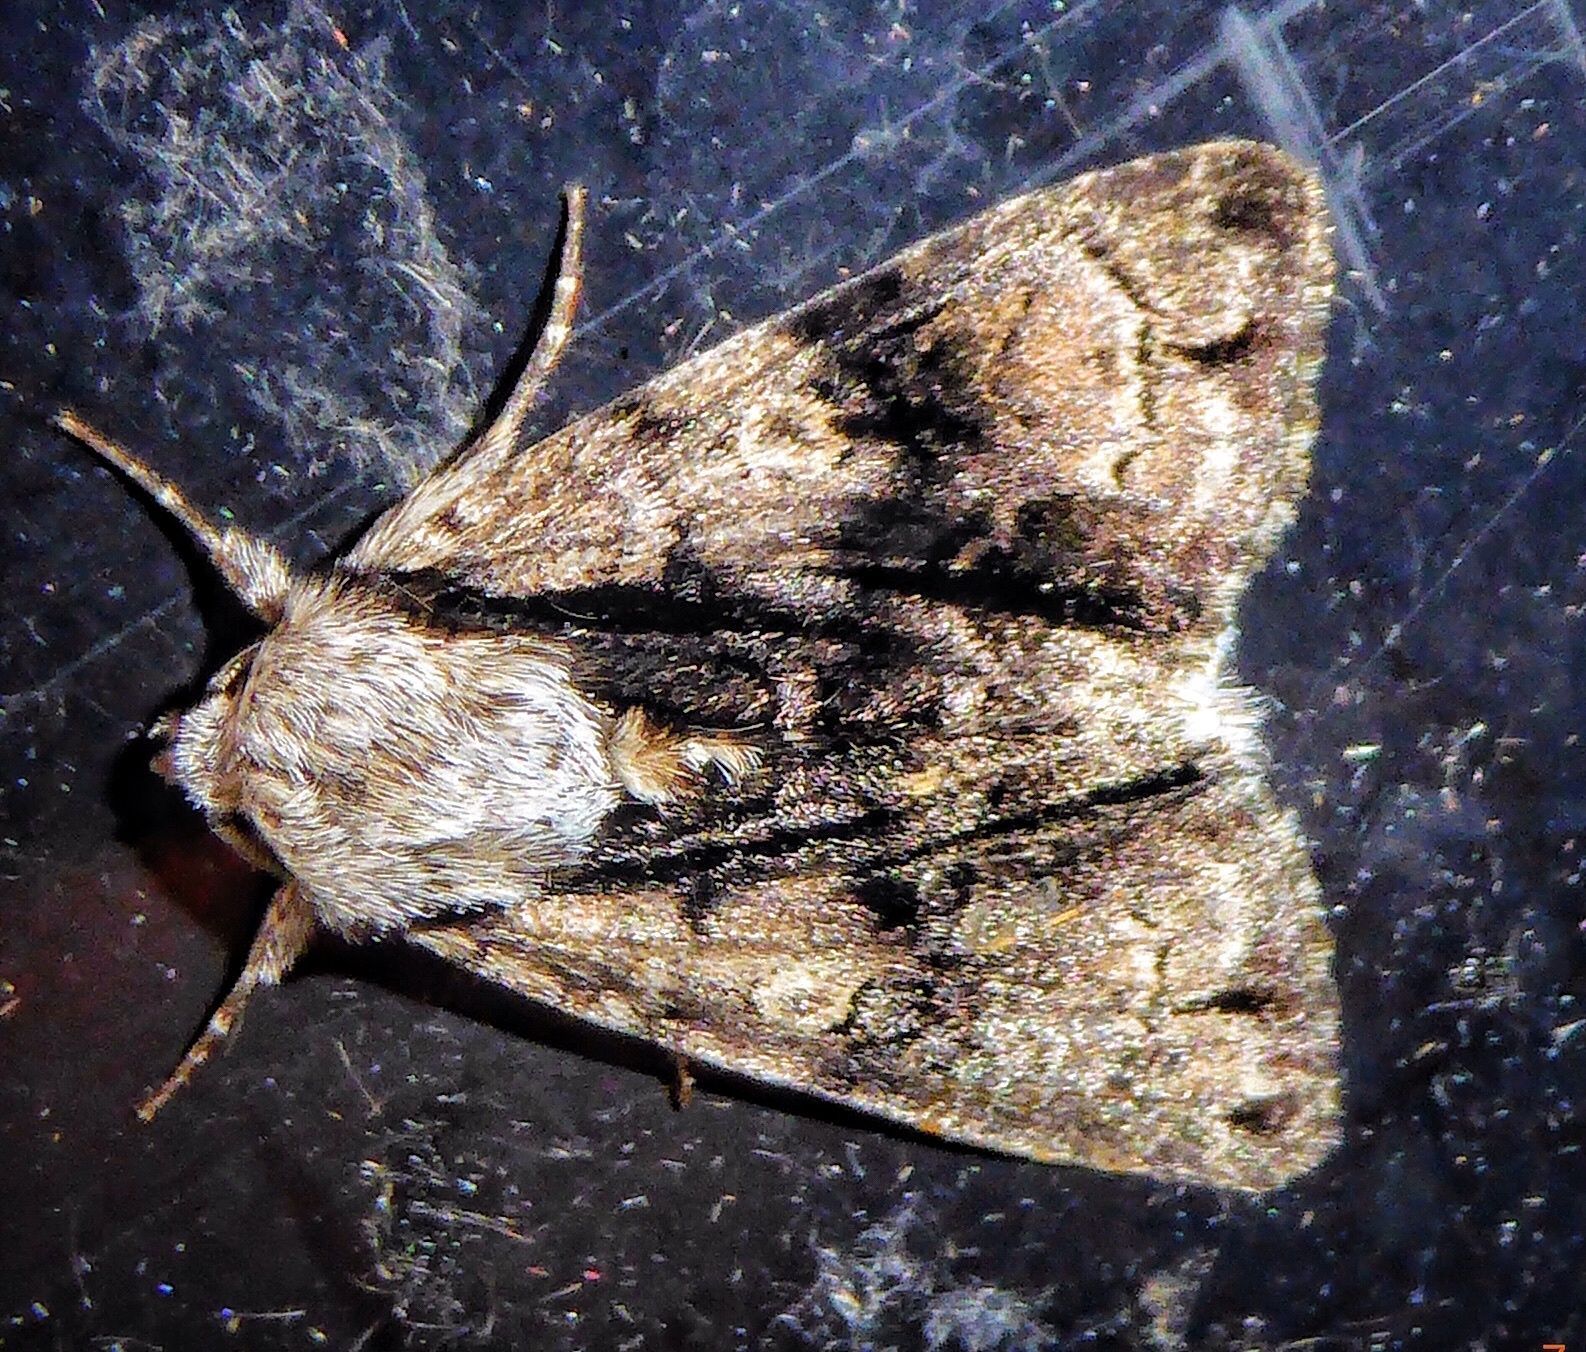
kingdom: Animalia
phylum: Arthropoda
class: Insecta
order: Lepidoptera
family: Noctuidae
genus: Acronicta
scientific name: Acronicta alni
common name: Alder moth
